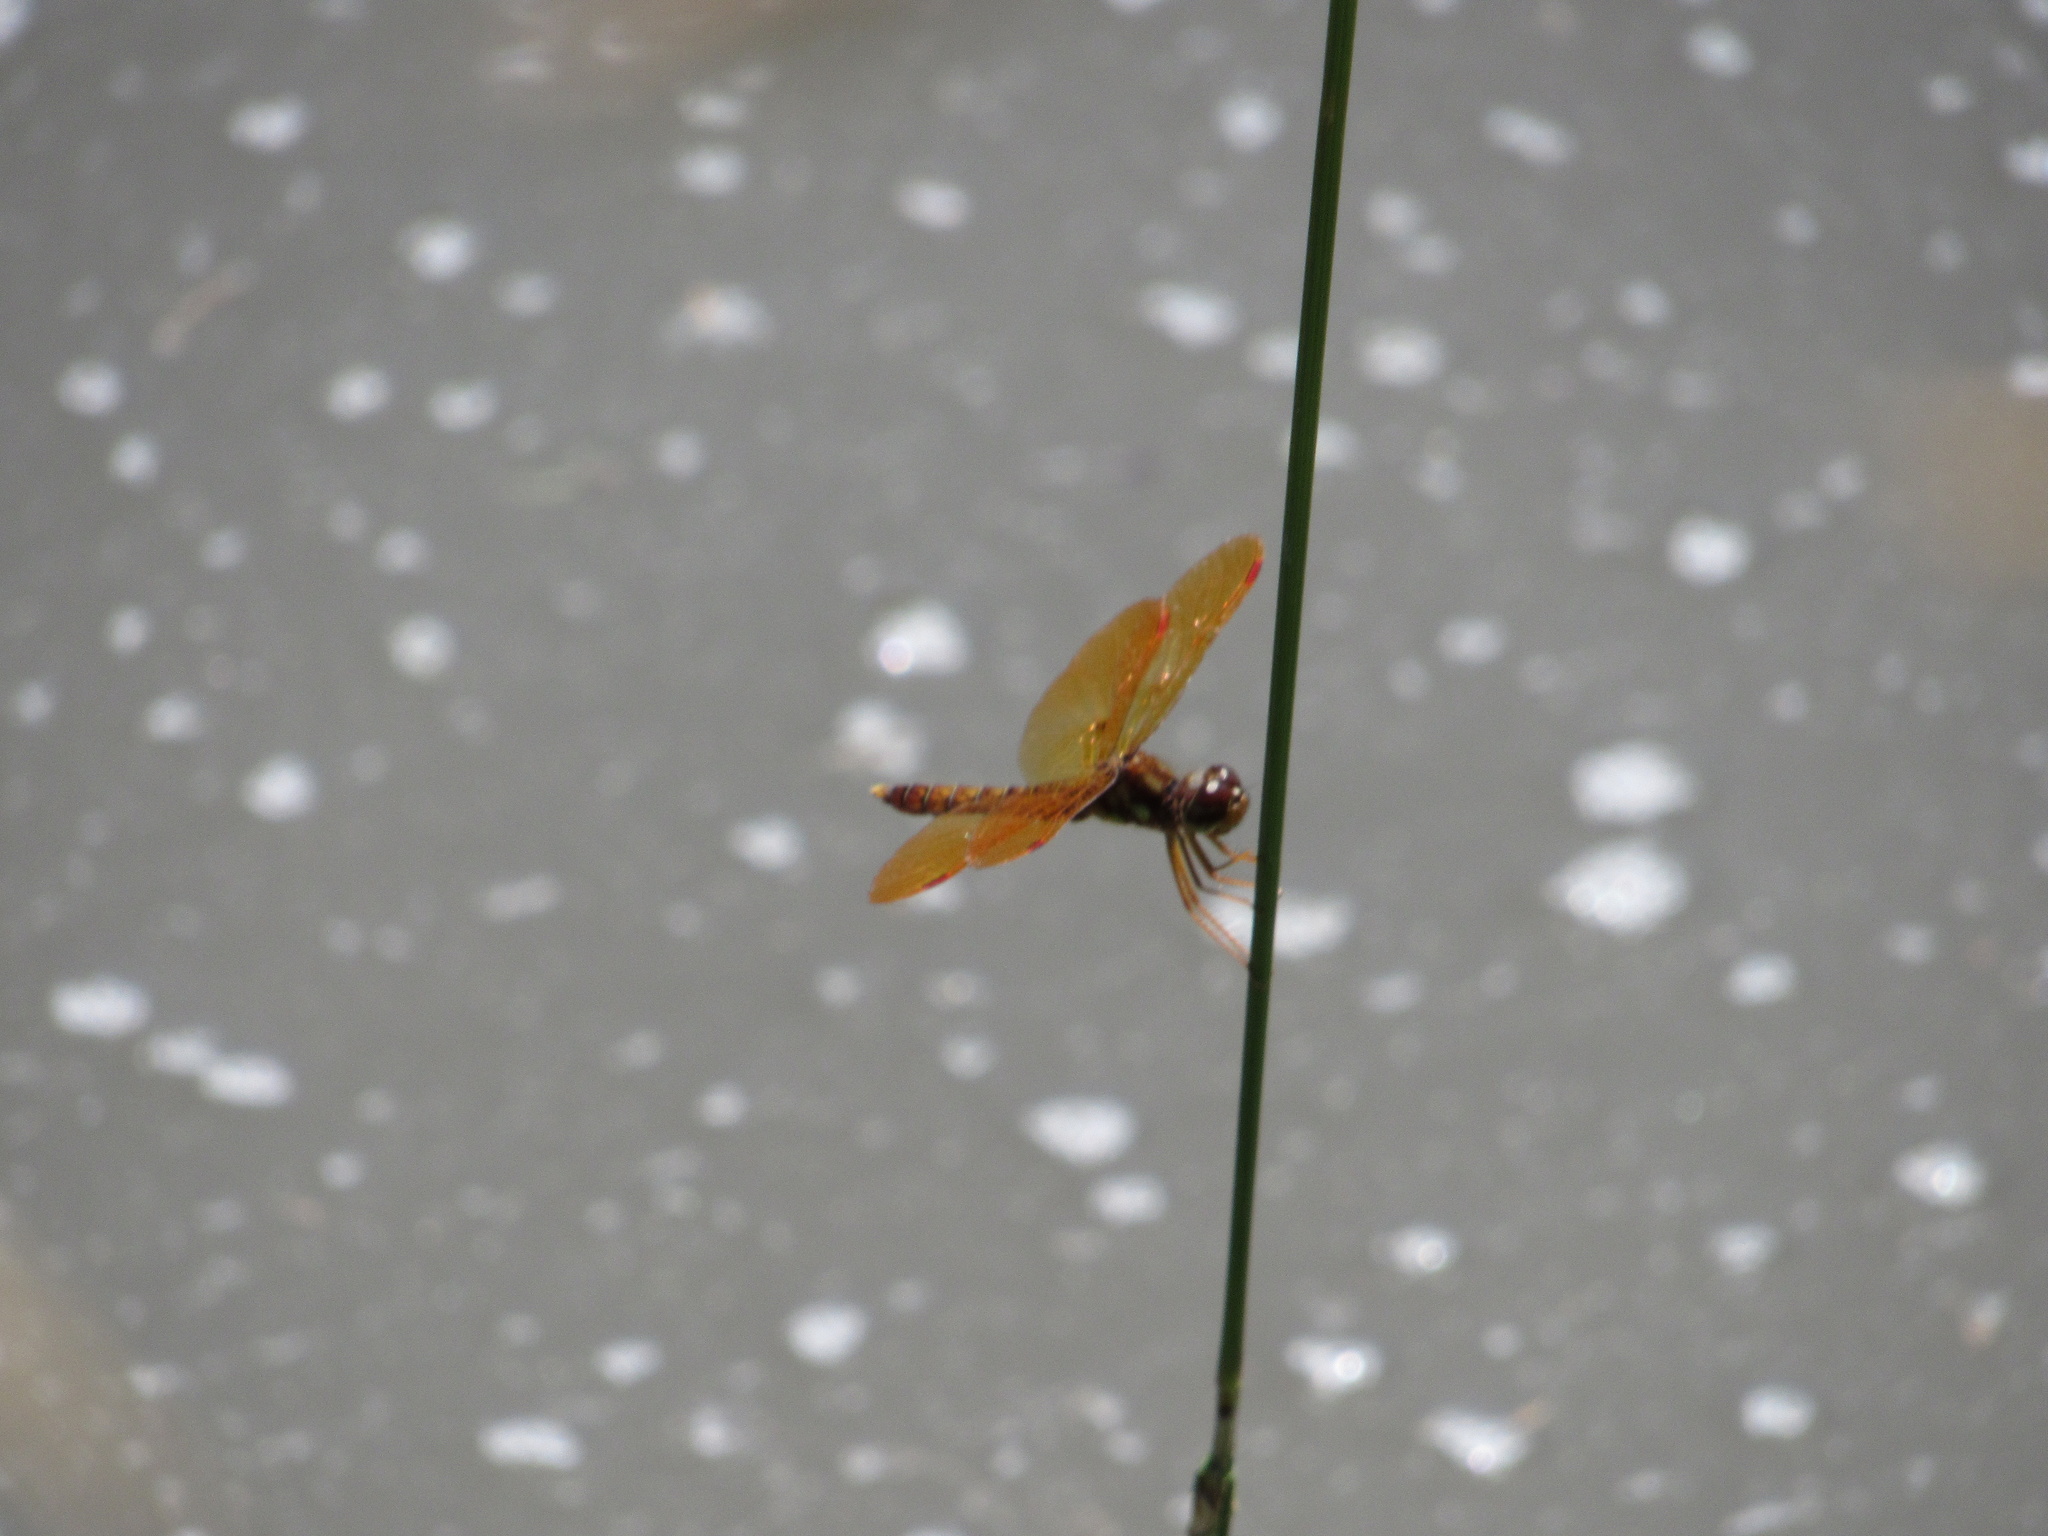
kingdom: Animalia
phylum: Arthropoda
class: Insecta
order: Odonata
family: Libellulidae
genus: Perithemis
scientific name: Perithemis tenera
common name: Eastern amberwing
